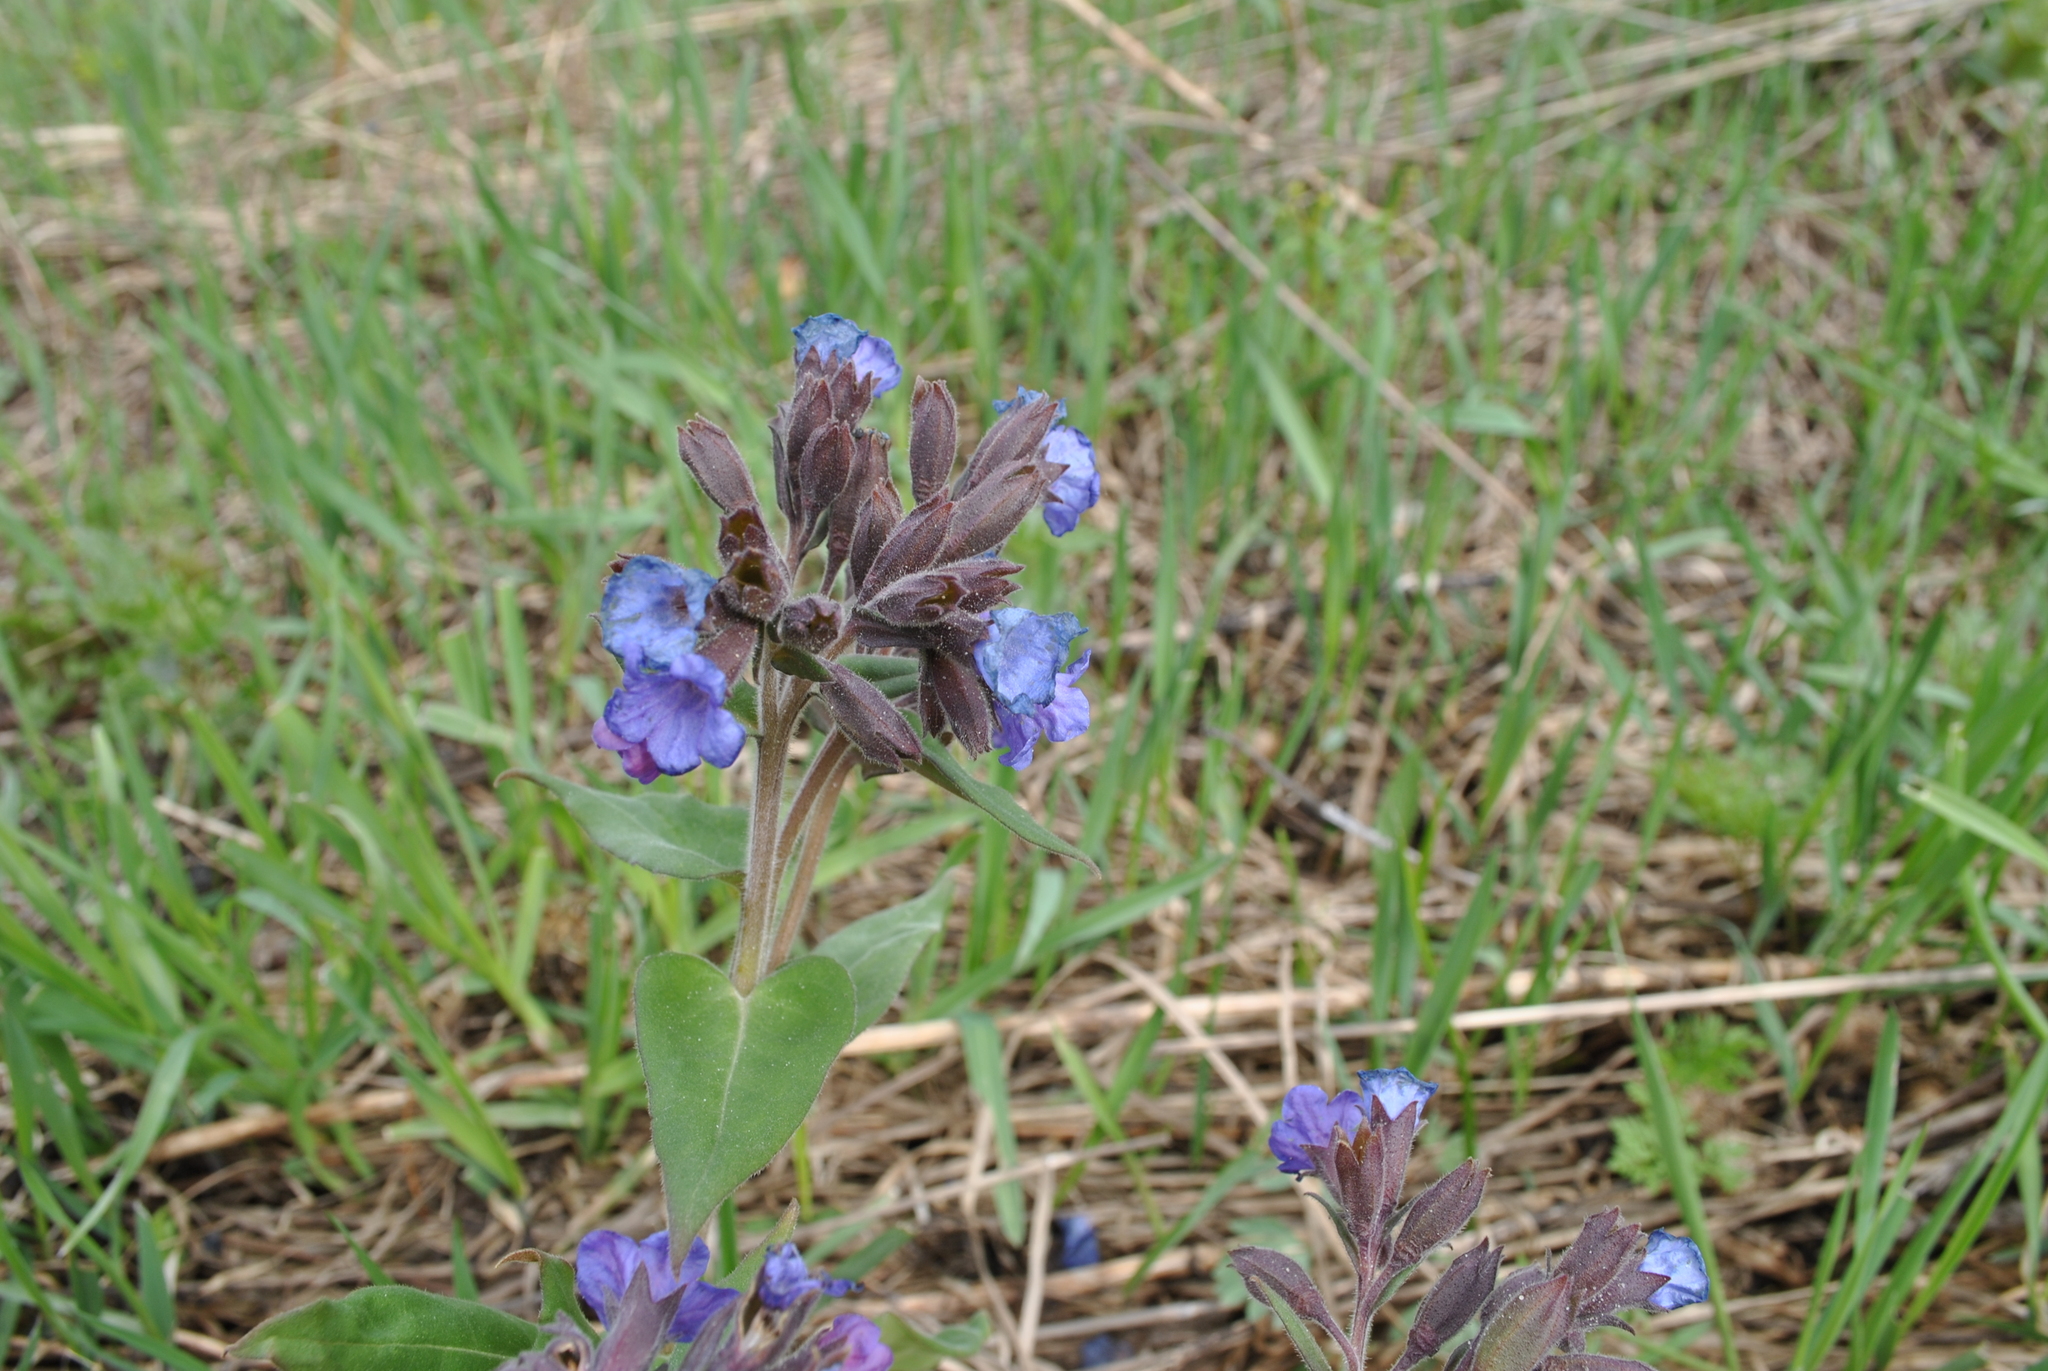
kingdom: Plantae
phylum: Tracheophyta
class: Magnoliopsida
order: Boraginales
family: Boraginaceae
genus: Pulmonaria
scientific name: Pulmonaria mollis
